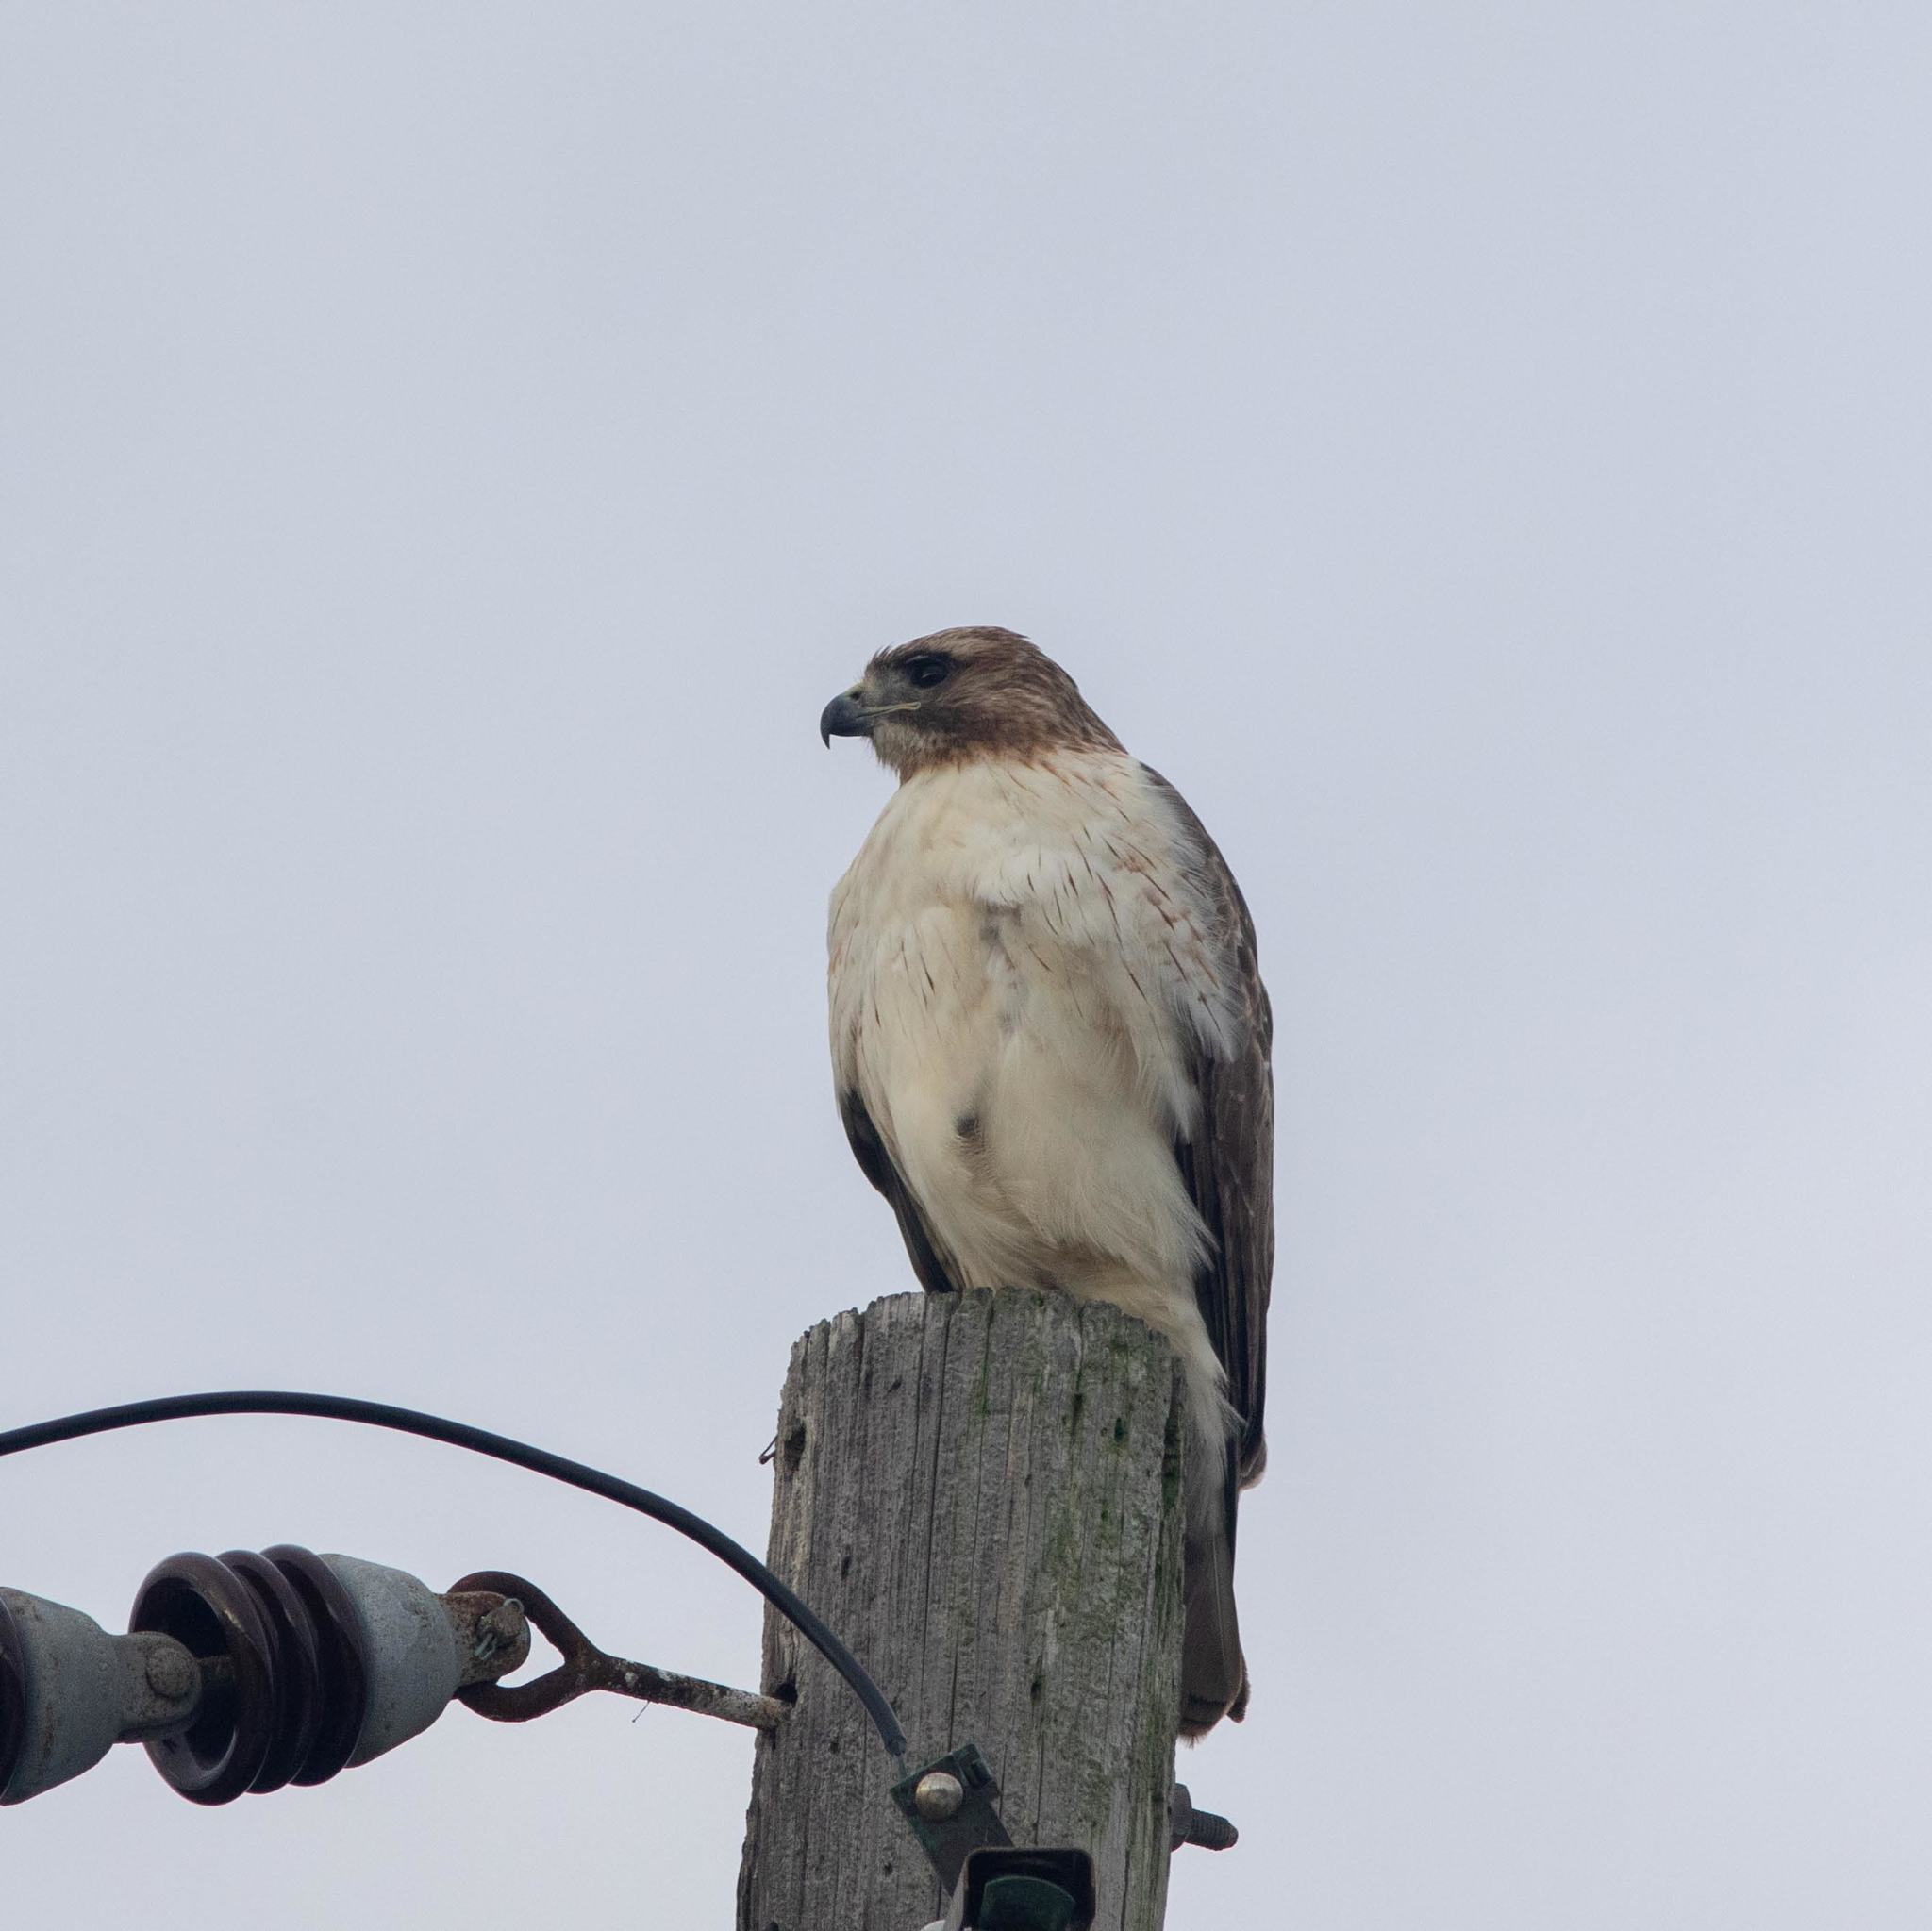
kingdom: Animalia
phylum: Chordata
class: Aves
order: Accipitriformes
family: Accipitridae
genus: Buteo
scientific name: Buteo jamaicensis
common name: Red-tailed hawk
